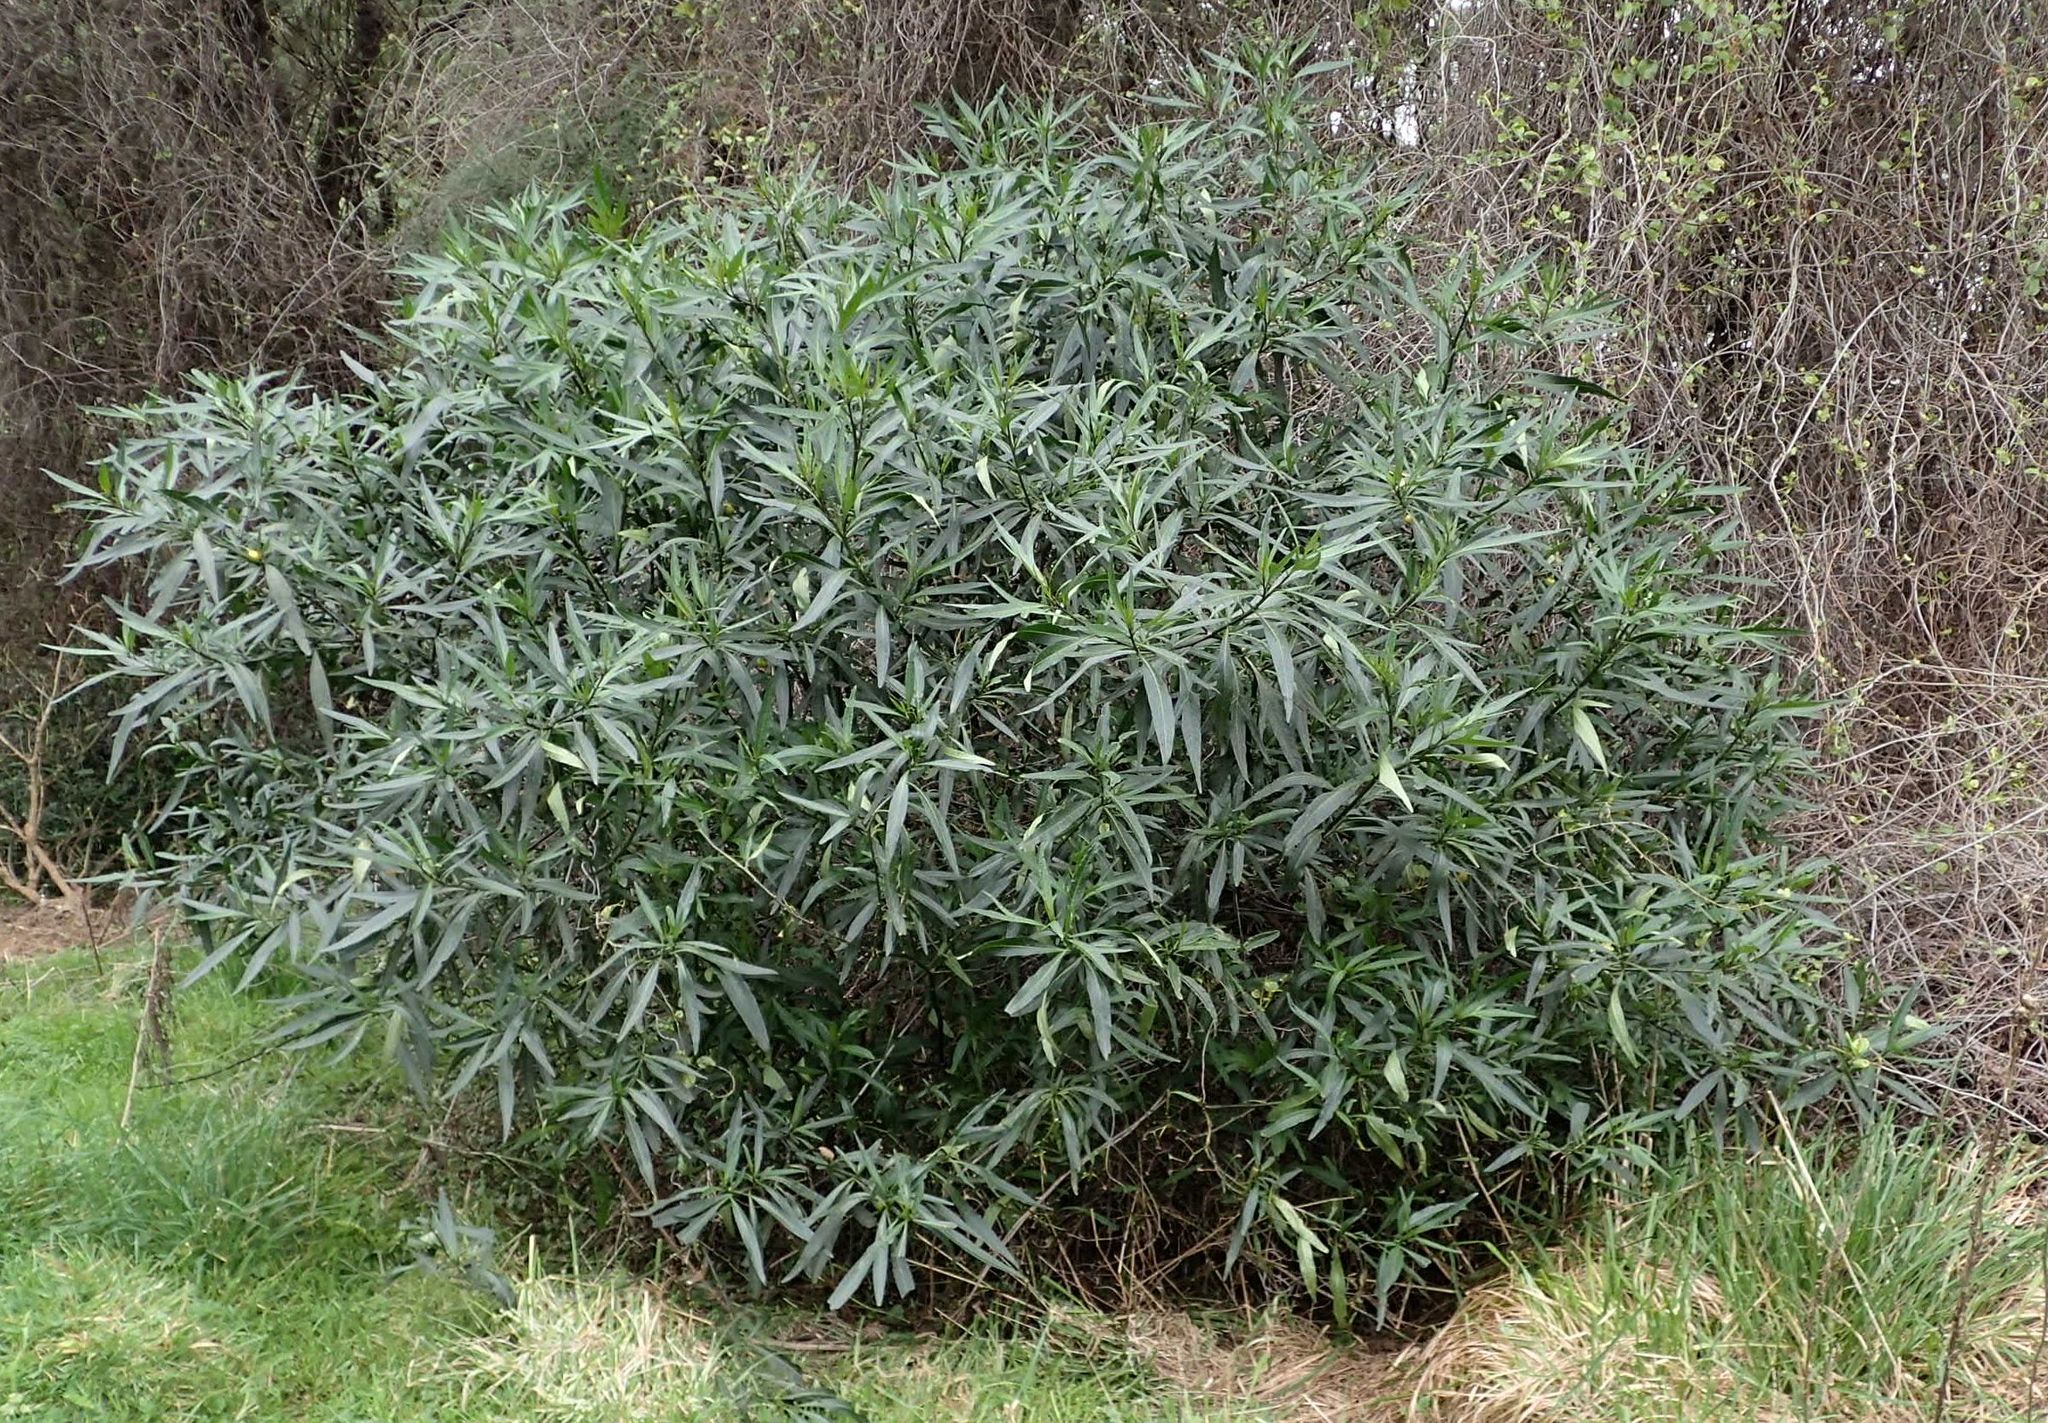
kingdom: Plantae
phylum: Tracheophyta
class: Magnoliopsida
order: Solanales
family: Solanaceae
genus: Solanum
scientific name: Solanum laciniatum
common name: Kangaroo-apple
